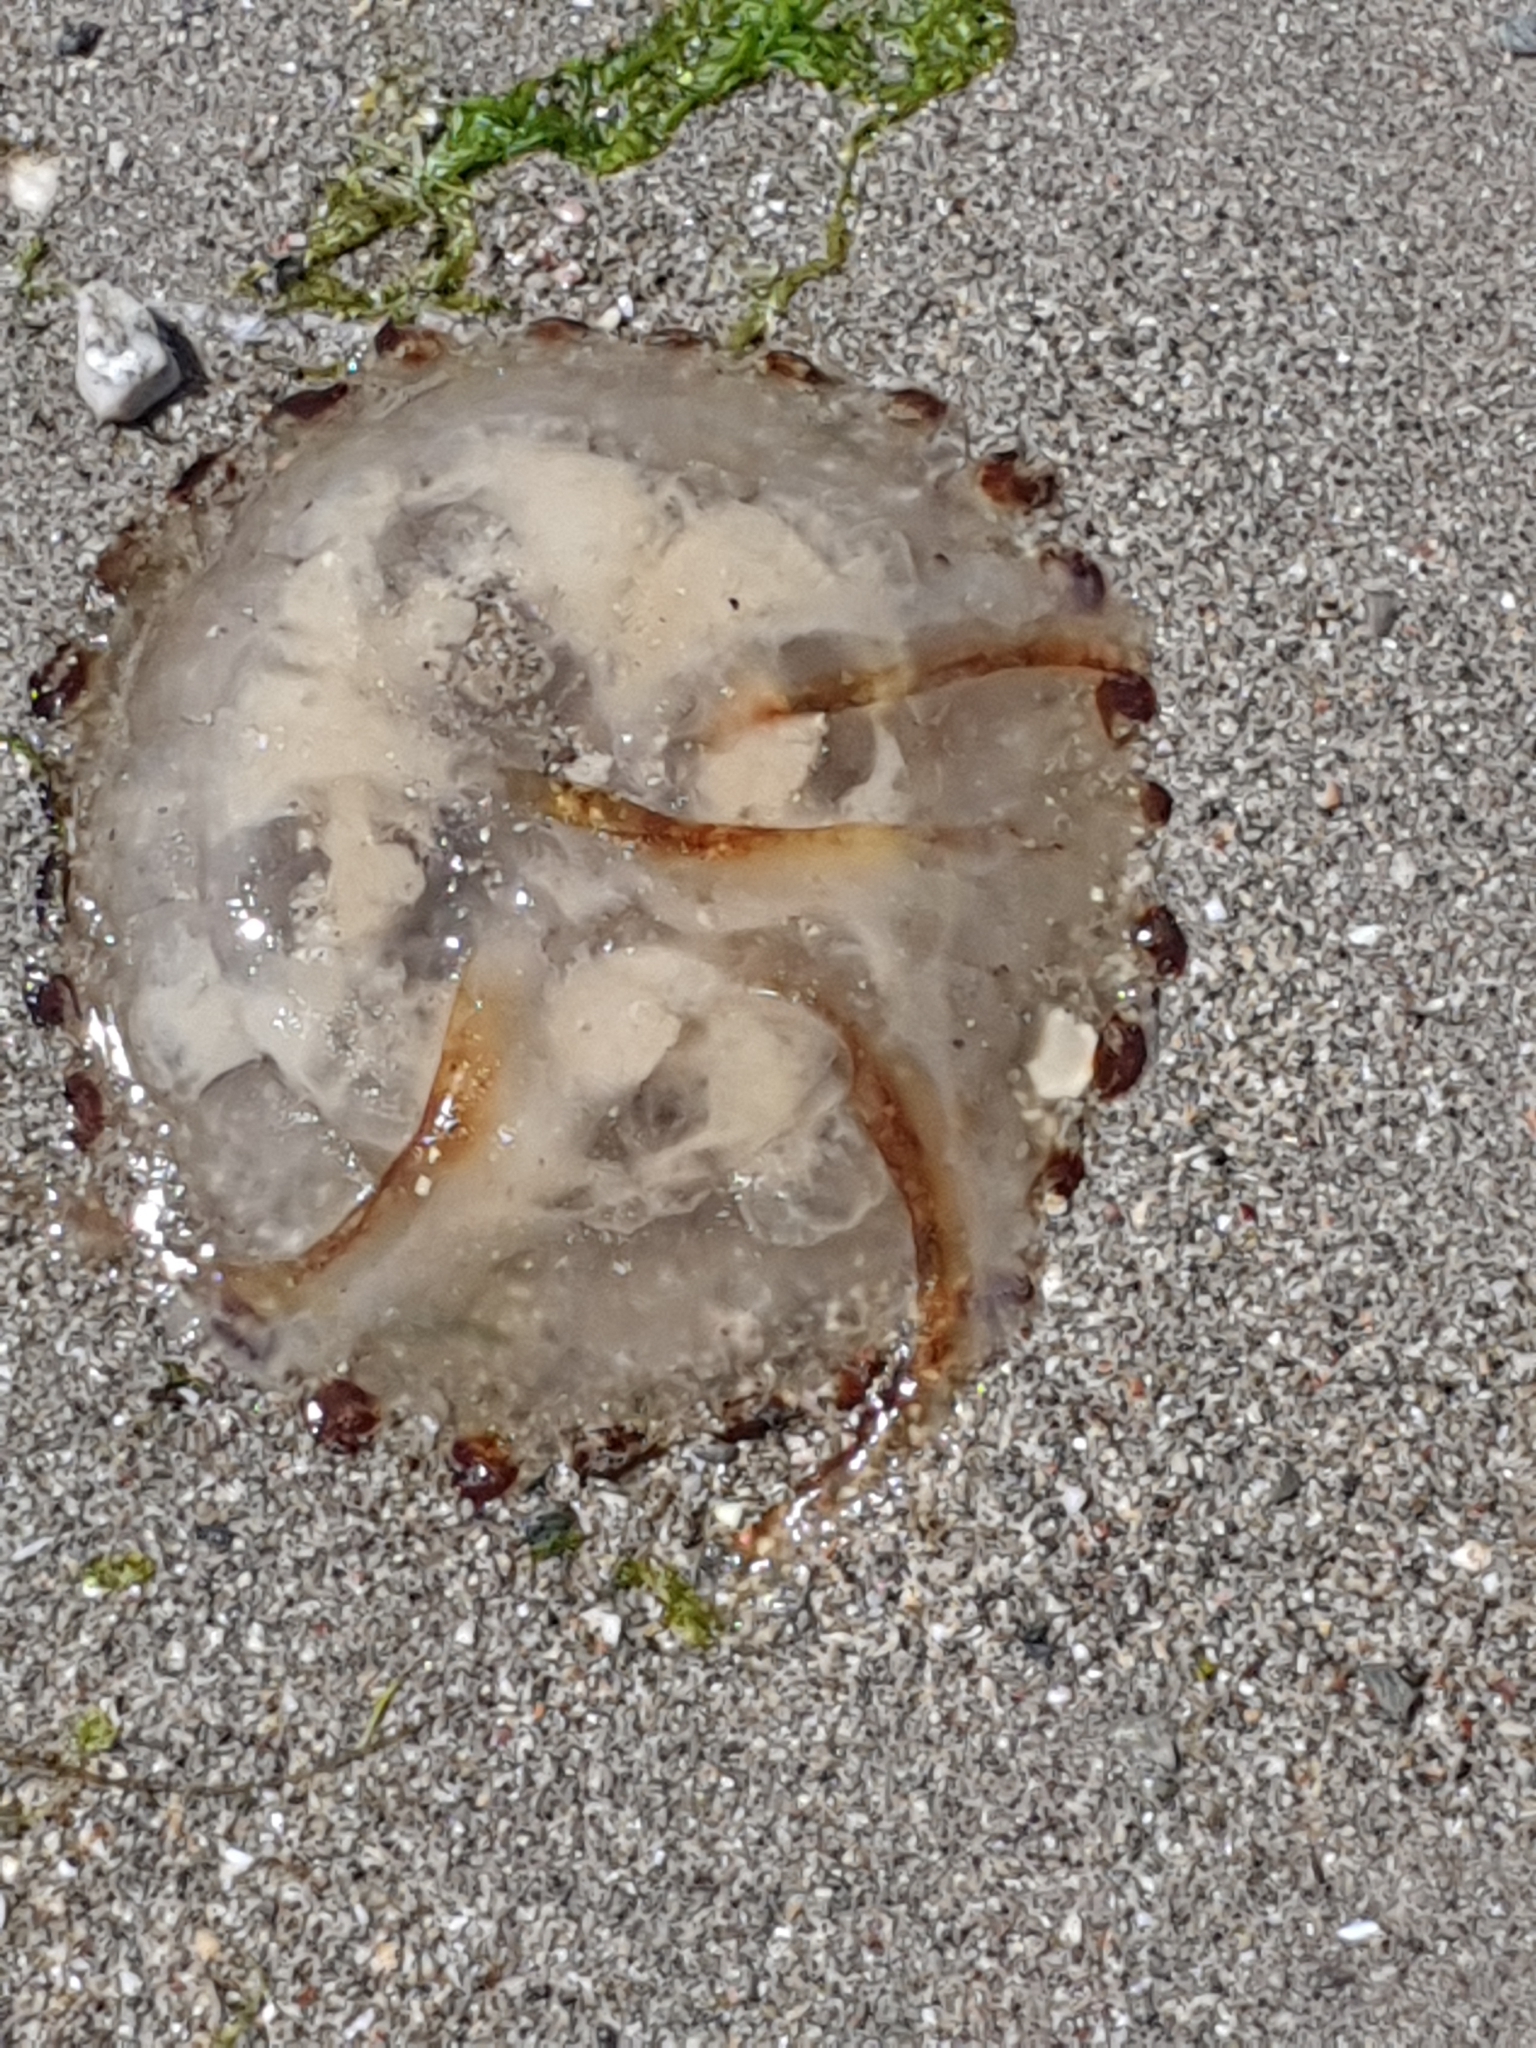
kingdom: Animalia
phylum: Cnidaria
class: Scyphozoa
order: Semaeostomeae
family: Pelagiidae
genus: Chrysaora
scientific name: Chrysaora hysoscella
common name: Compass jellyfish
